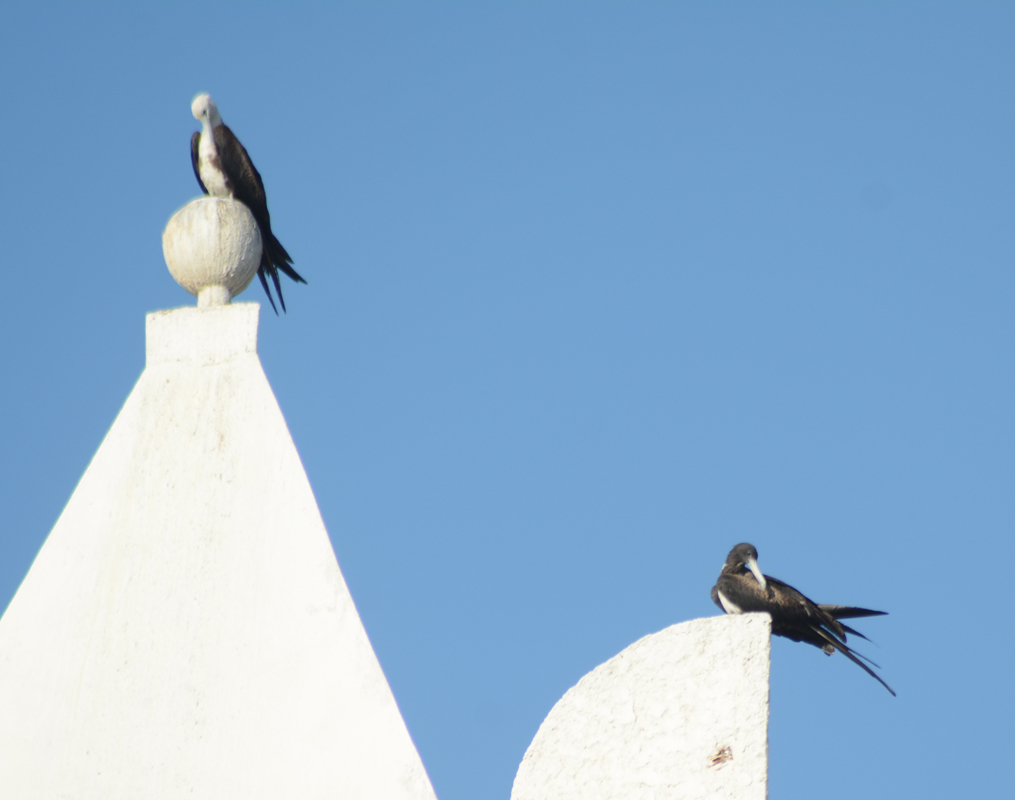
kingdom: Animalia
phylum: Chordata
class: Aves
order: Suliformes
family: Fregatidae
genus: Fregata
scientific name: Fregata magnificens
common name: Magnificent frigatebird
